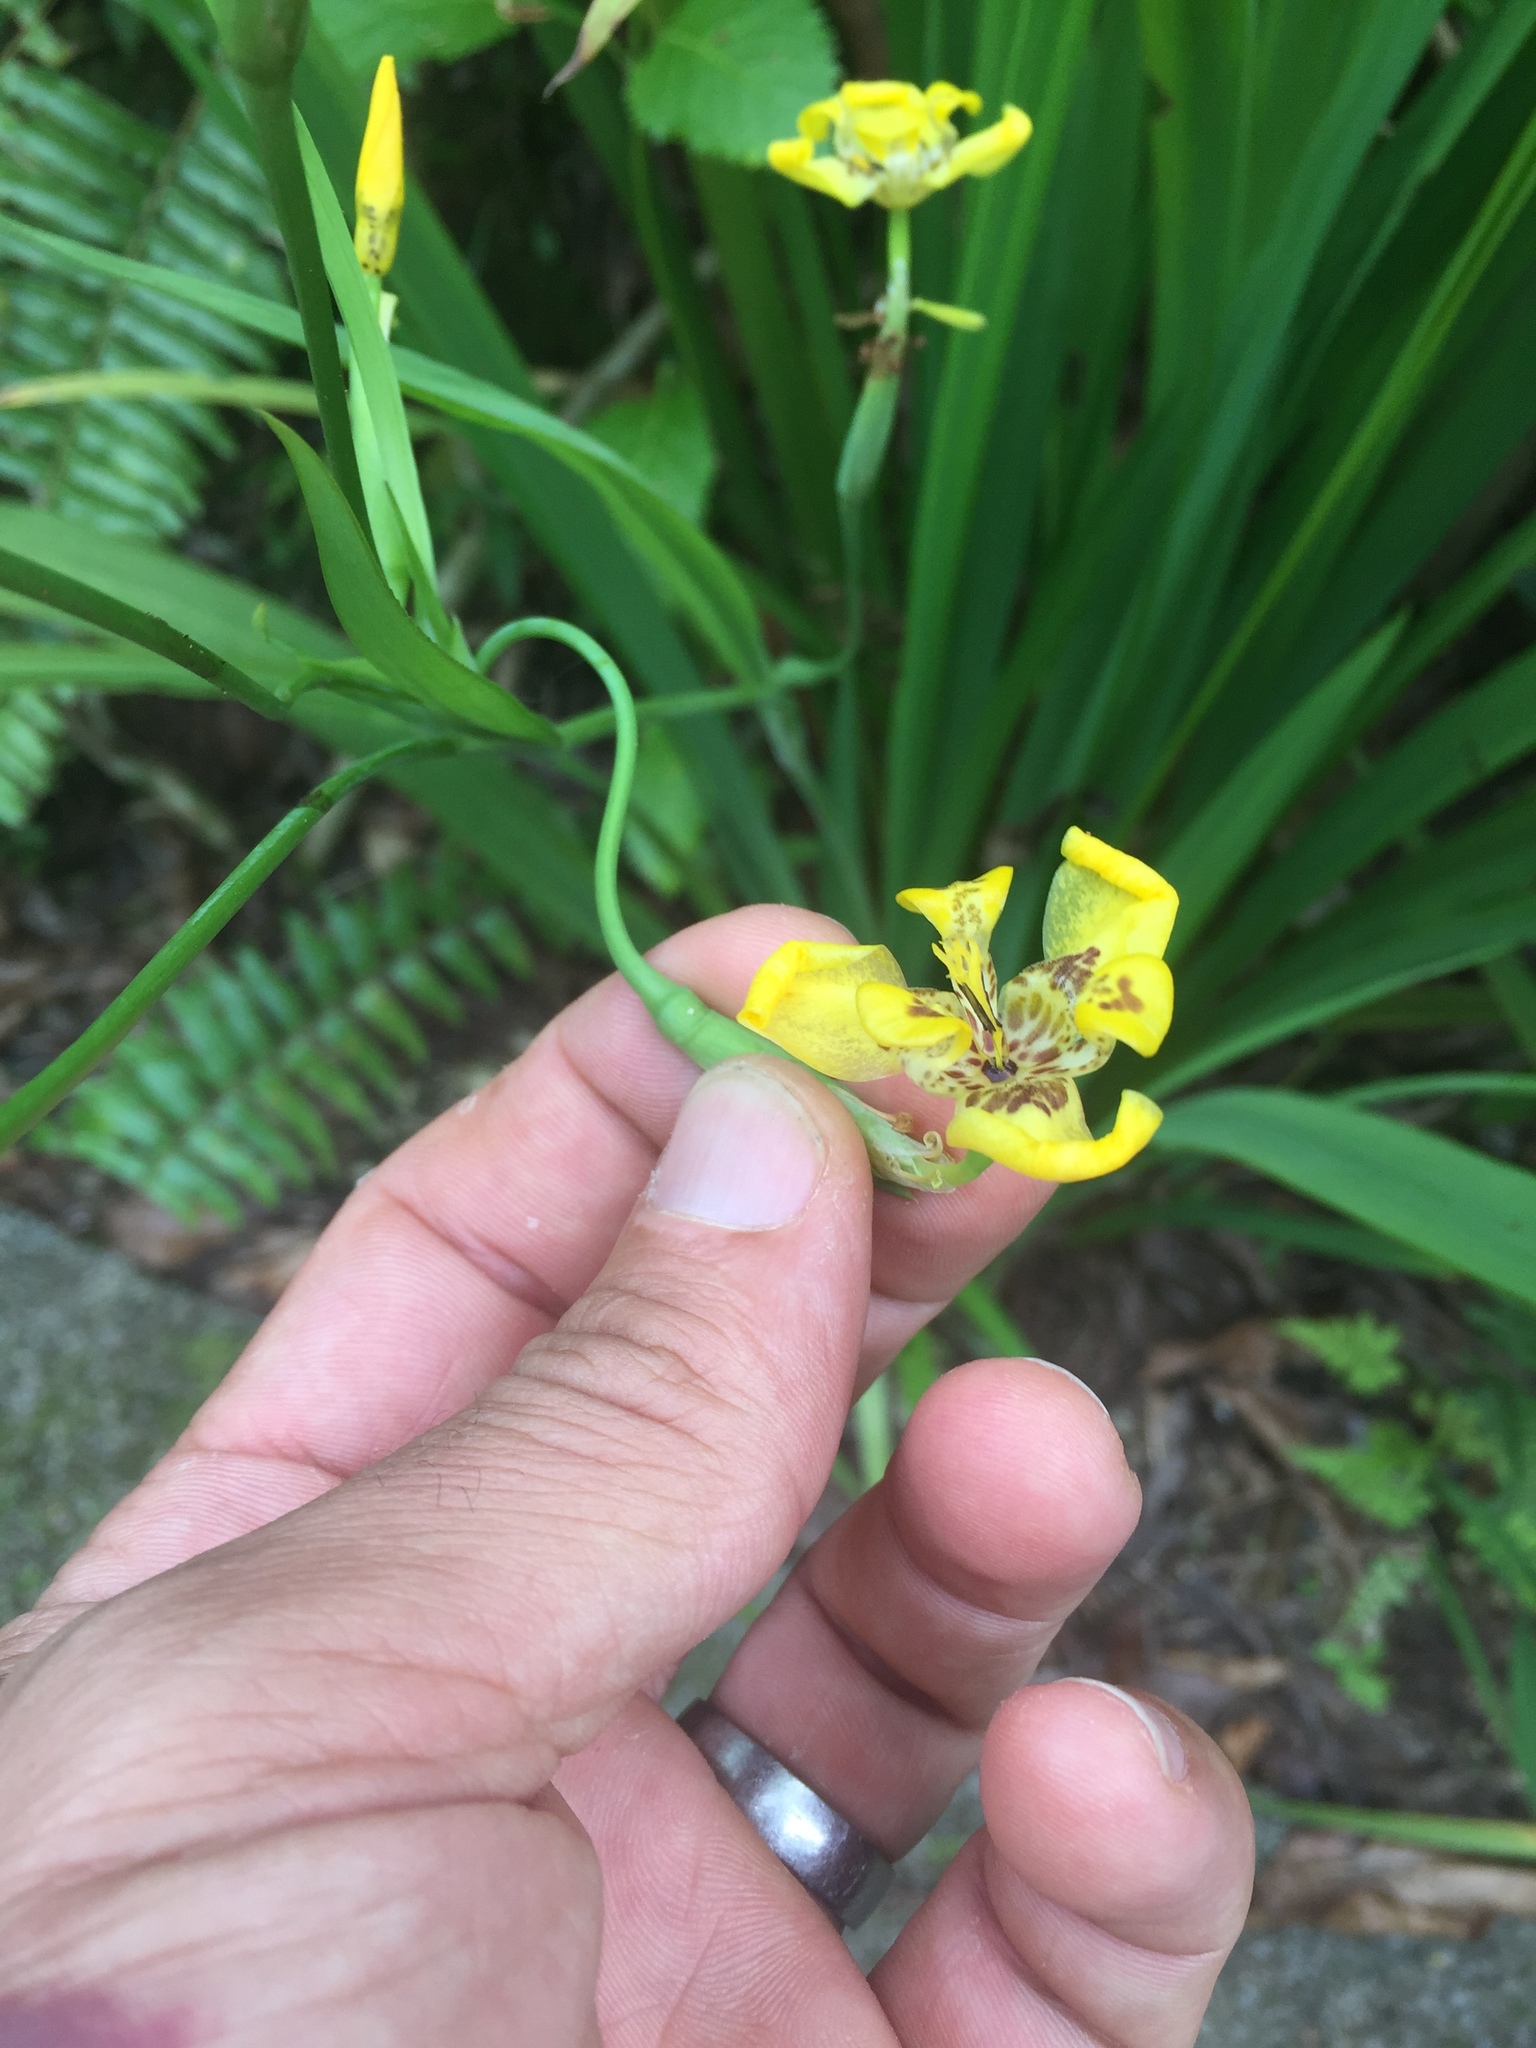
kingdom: Plantae
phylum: Tracheophyta
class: Liliopsida
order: Asparagales
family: Iridaceae
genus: Trimezia
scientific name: Trimezia steyermarkii
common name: Trimezia
